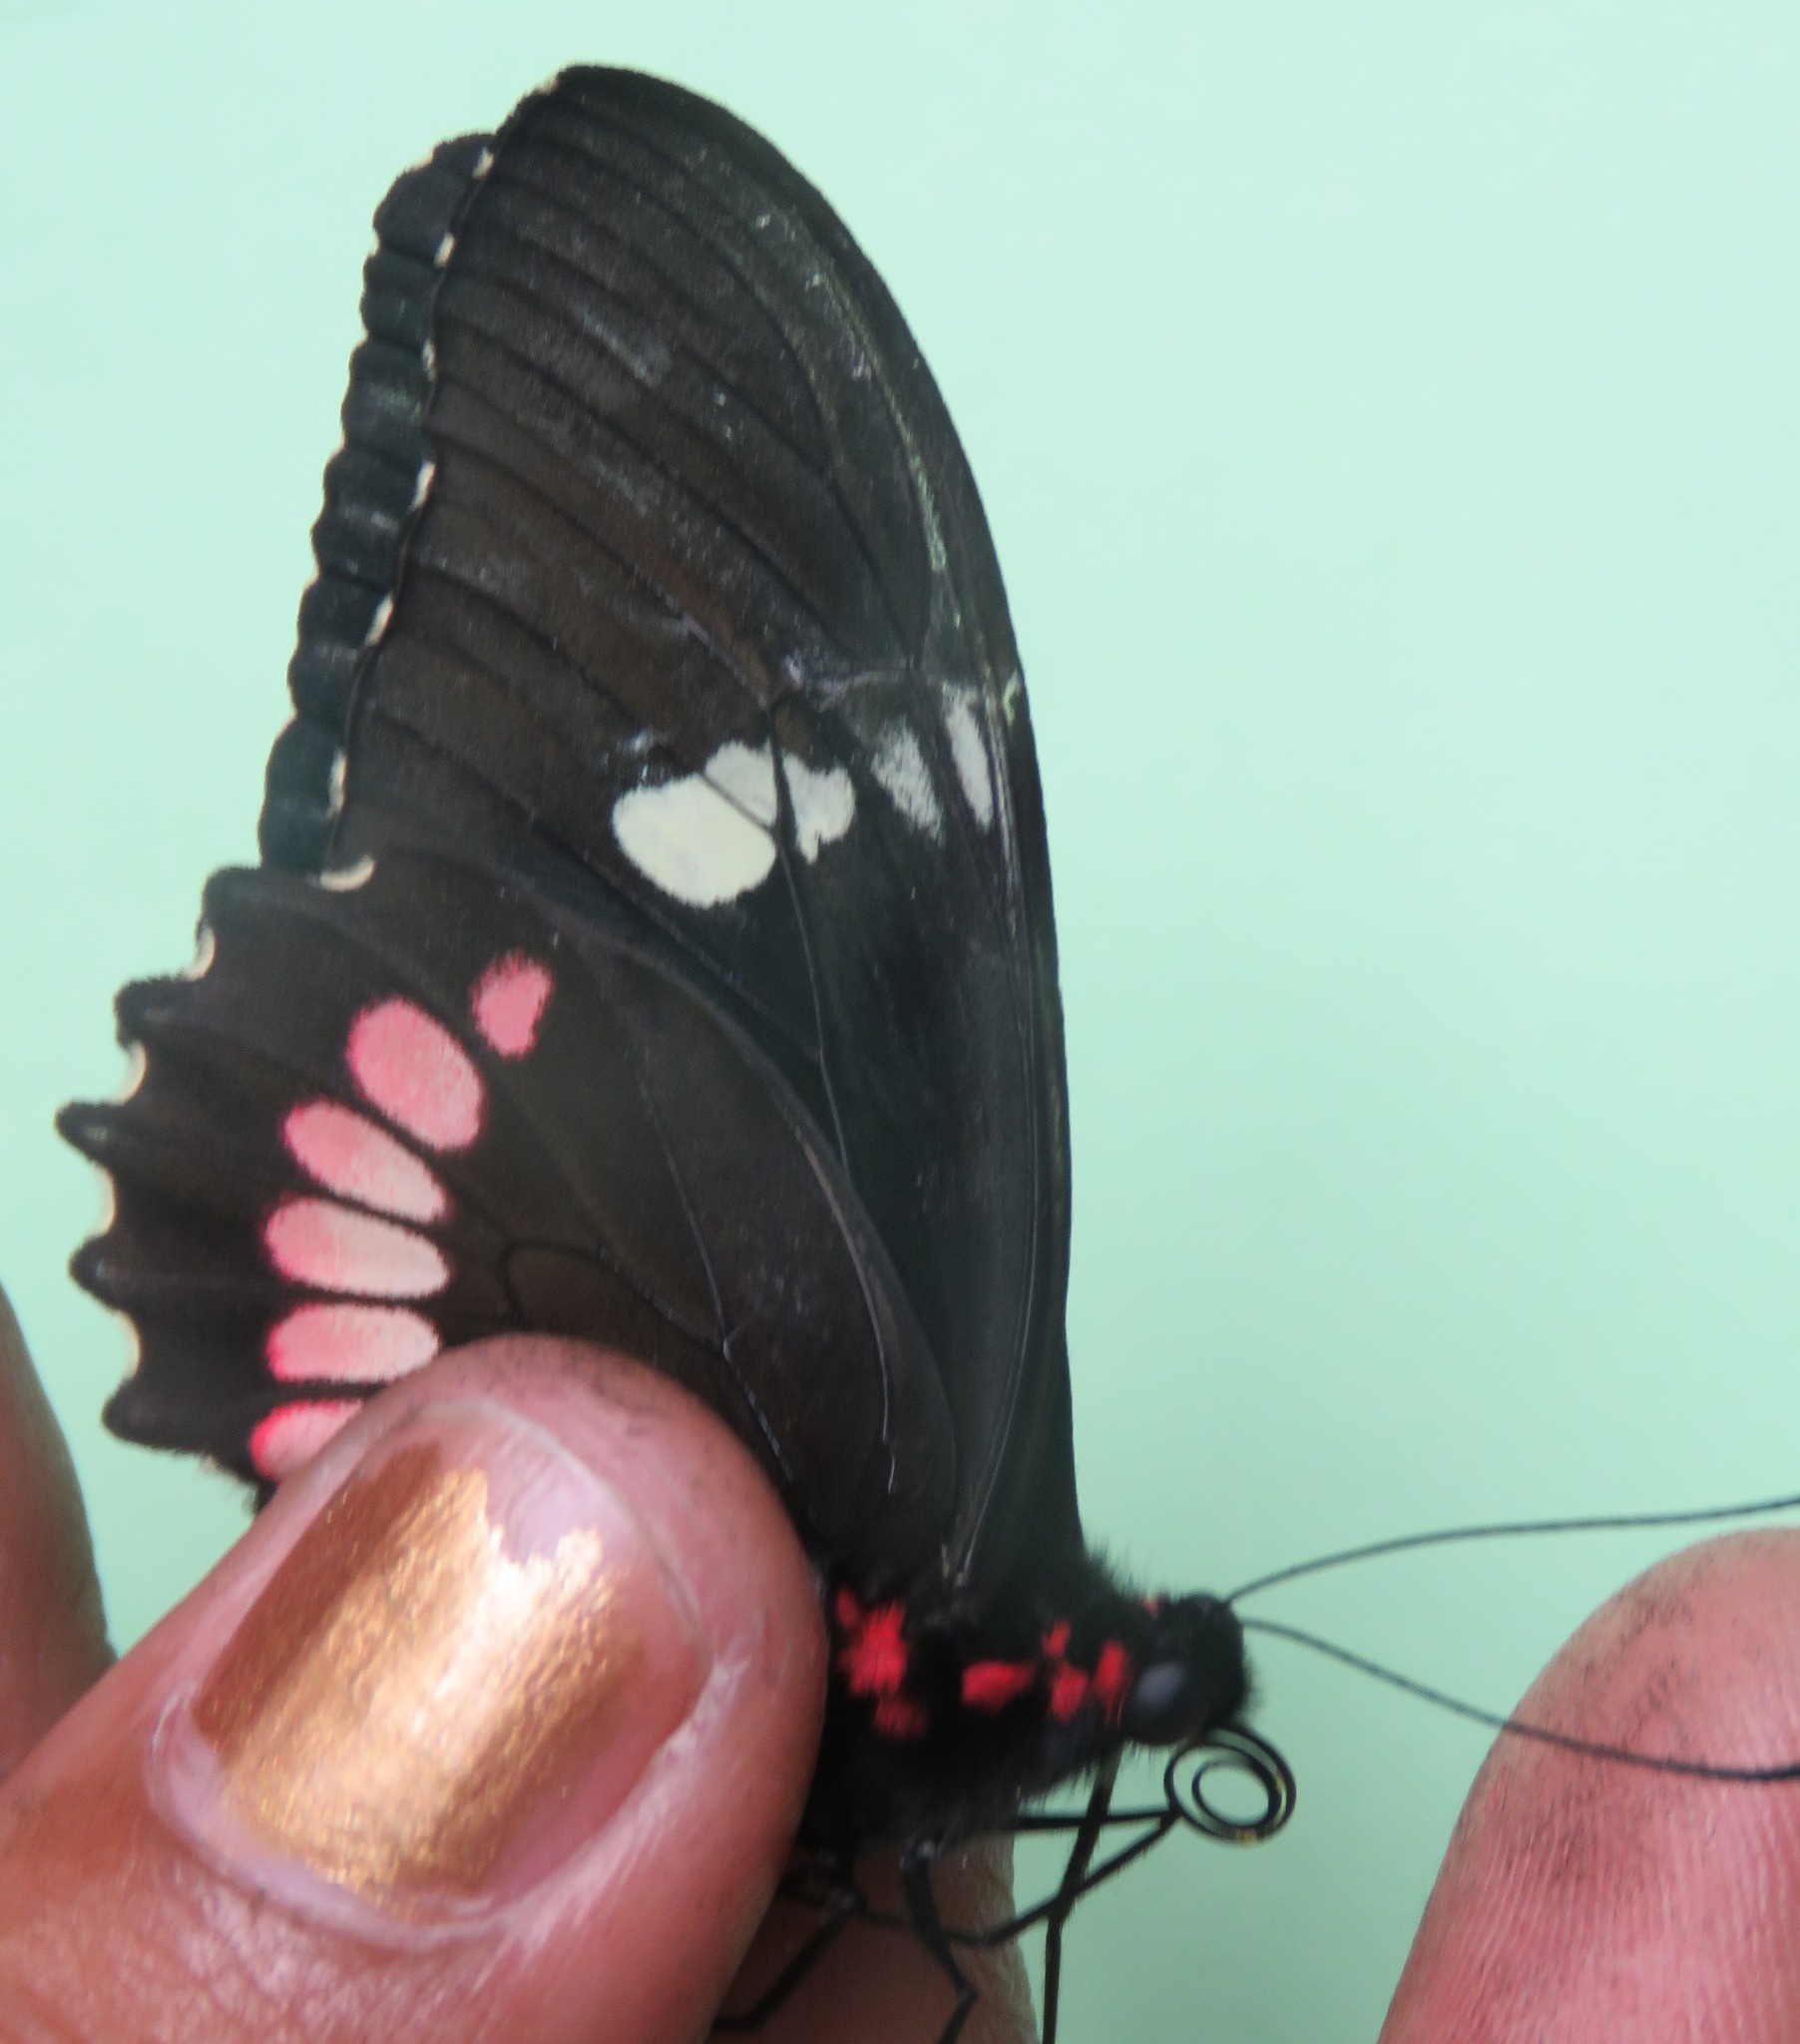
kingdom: Animalia
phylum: Arthropoda
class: Insecta
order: Lepidoptera
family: Papilionidae
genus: Parides
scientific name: Parides iphidamas
